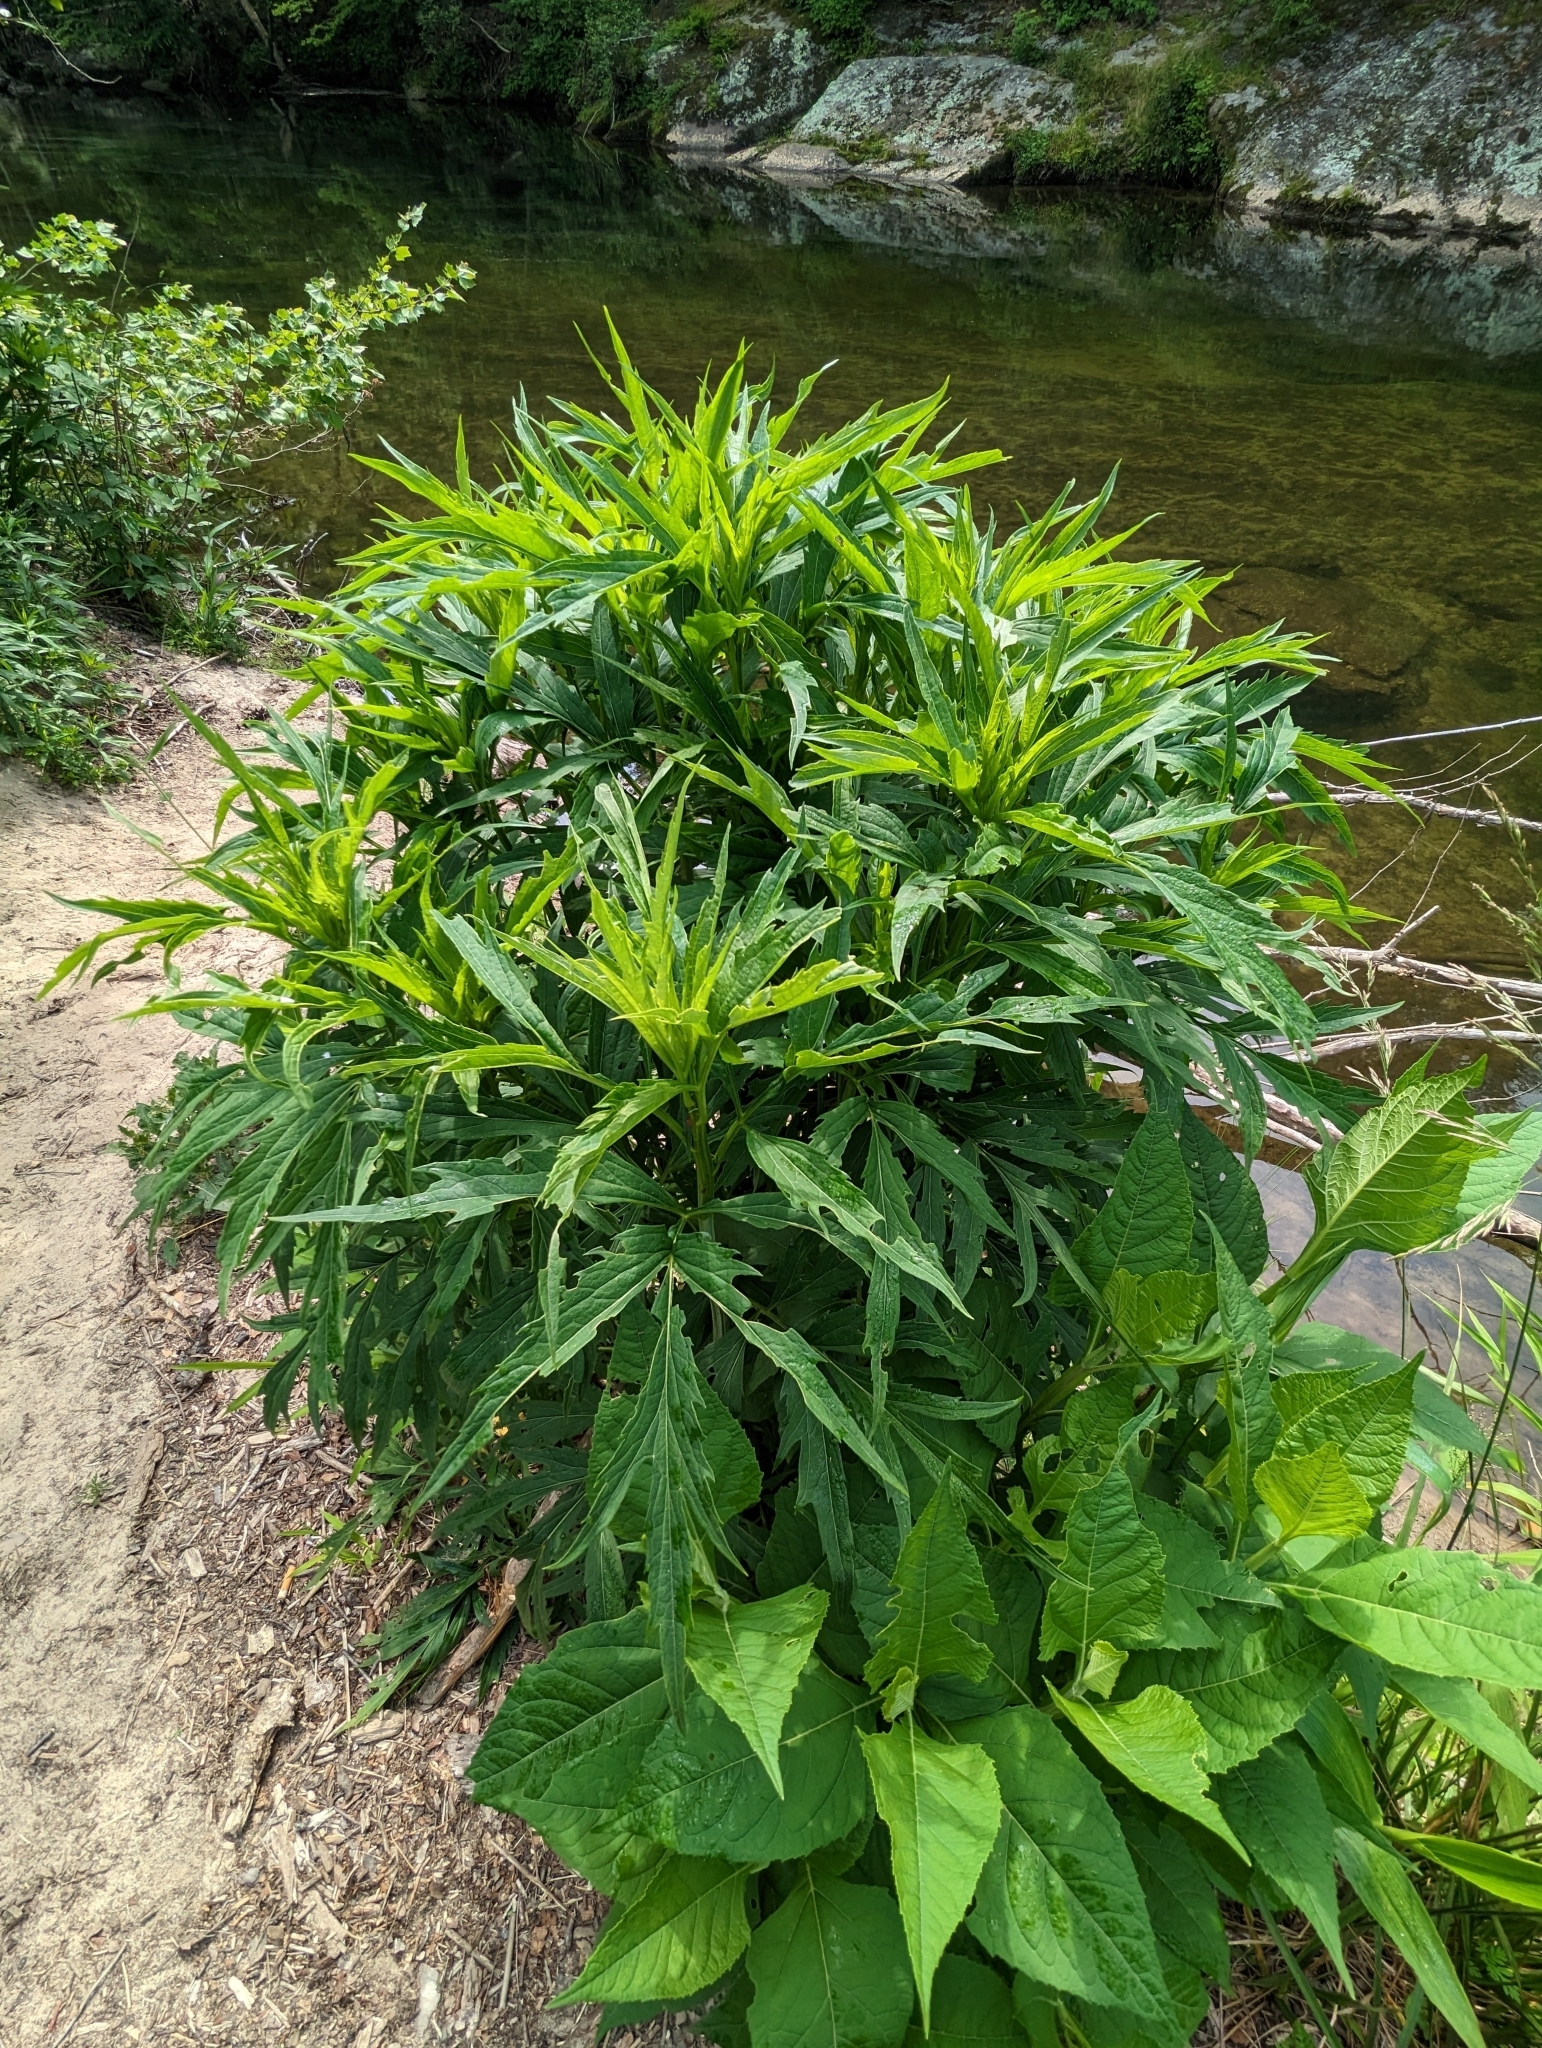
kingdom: Plantae
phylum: Tracheophyta
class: Magnoliopsida
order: Asterales
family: Asteraceae
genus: Rudbeckia
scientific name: Rudbeckia laciniata
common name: Coneflower
